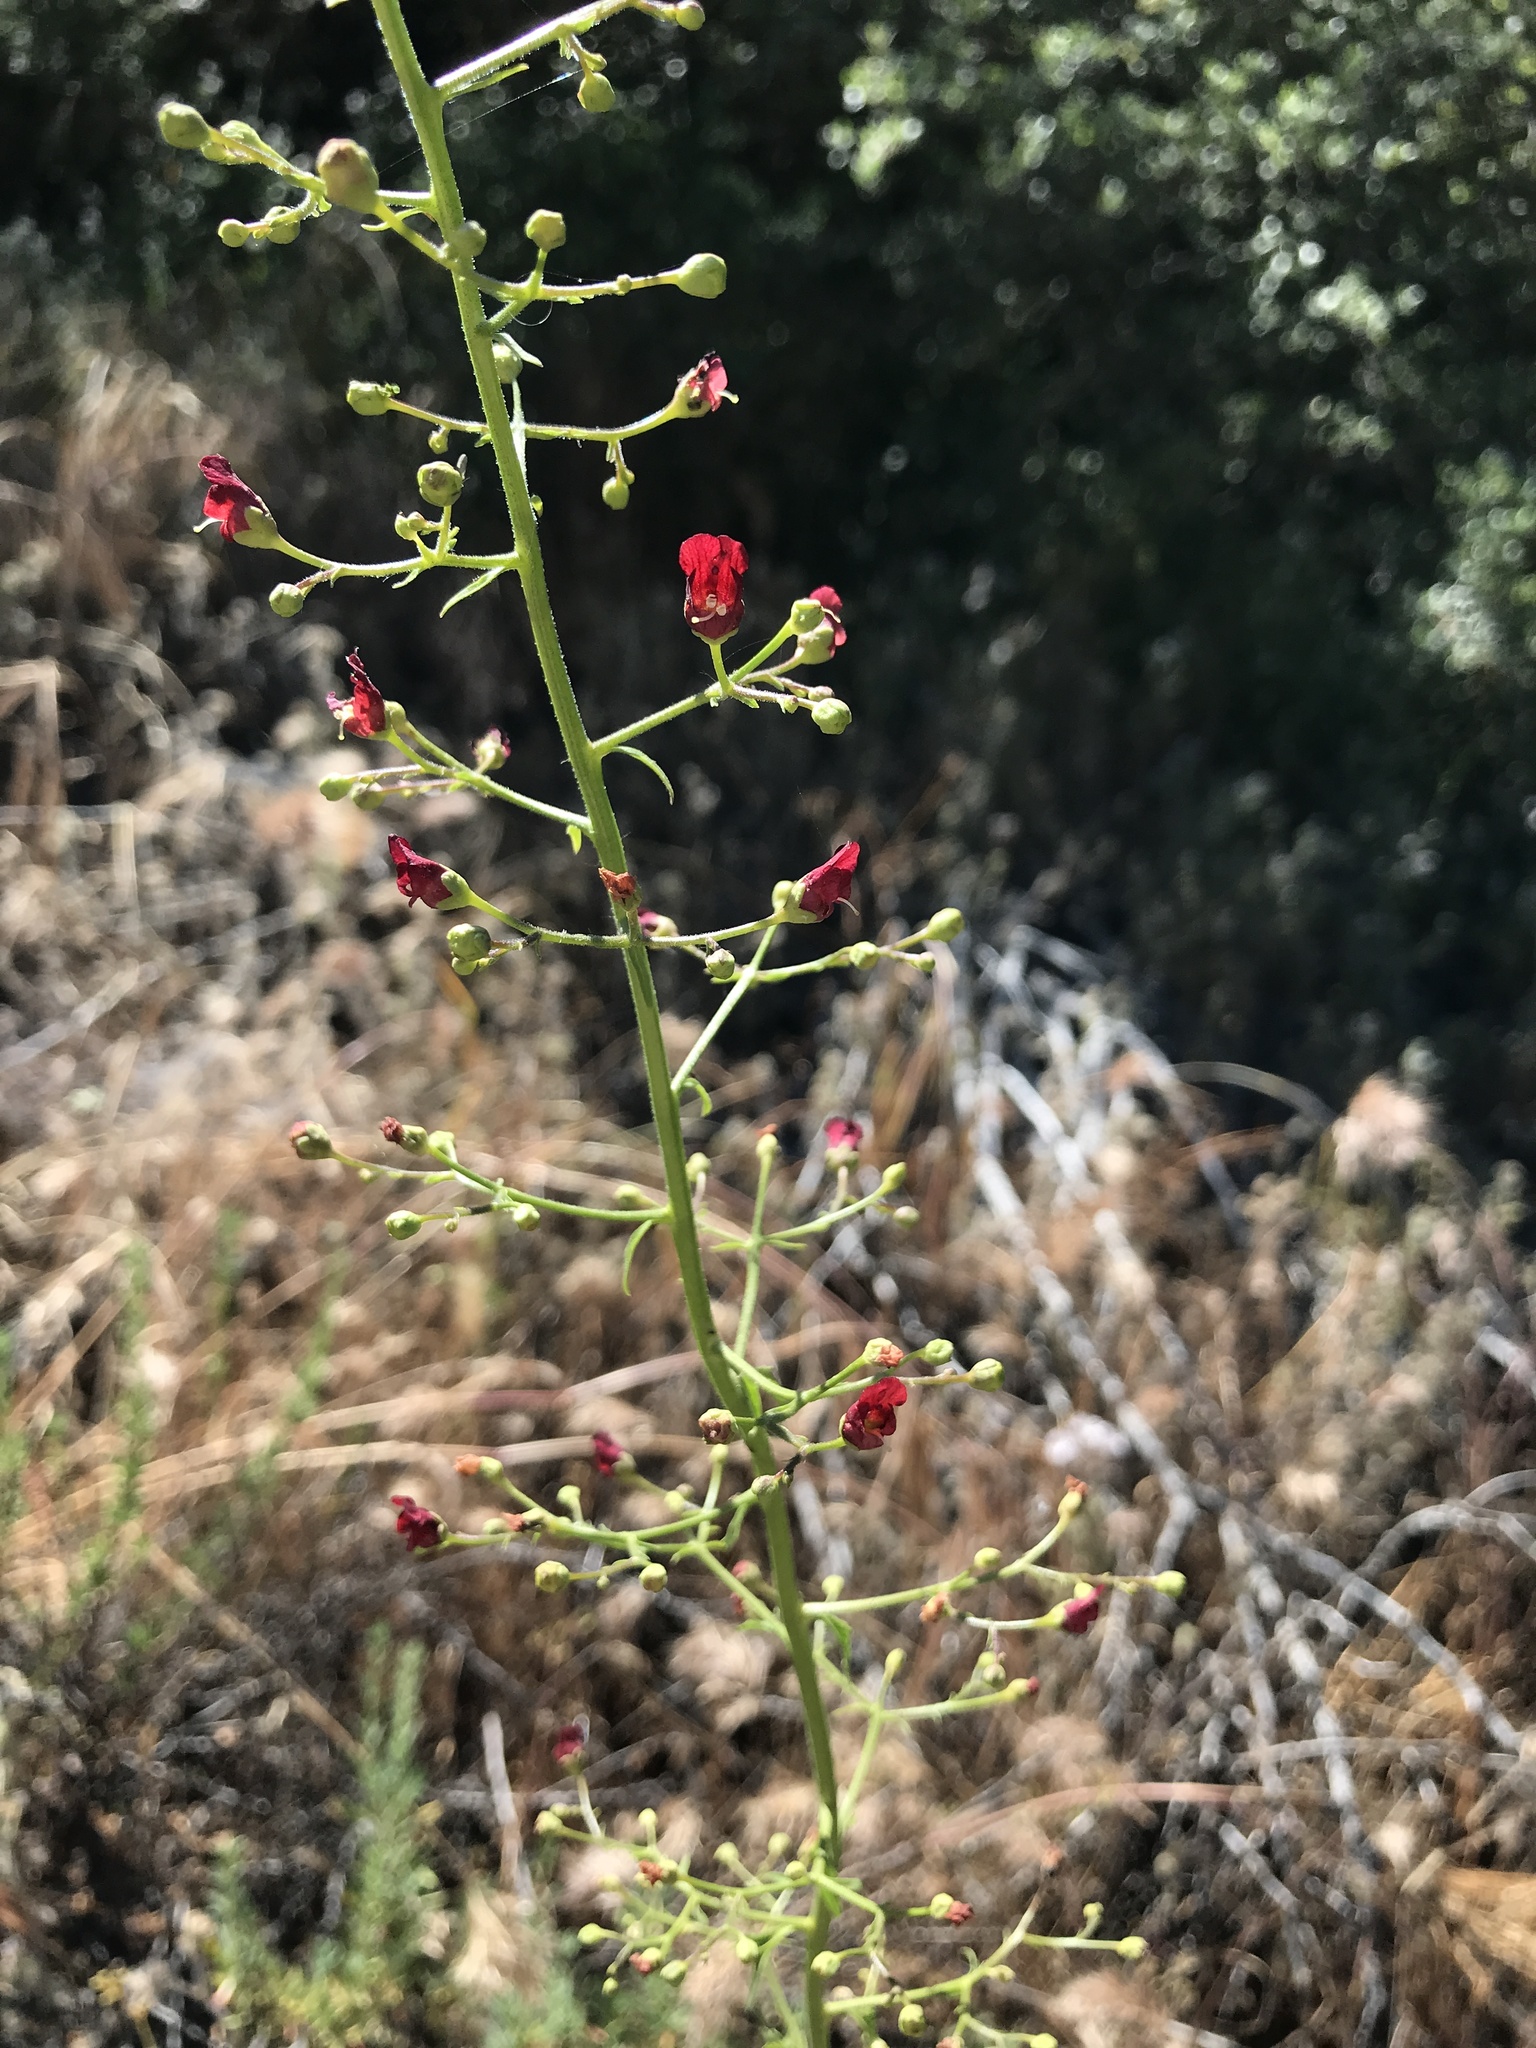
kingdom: Plantae
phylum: Tracheophyta
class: Magnoliopsida
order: Lamiales
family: Scrophulariaceae
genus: Scrophularia
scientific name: Scrophularia californica
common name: California figwort
